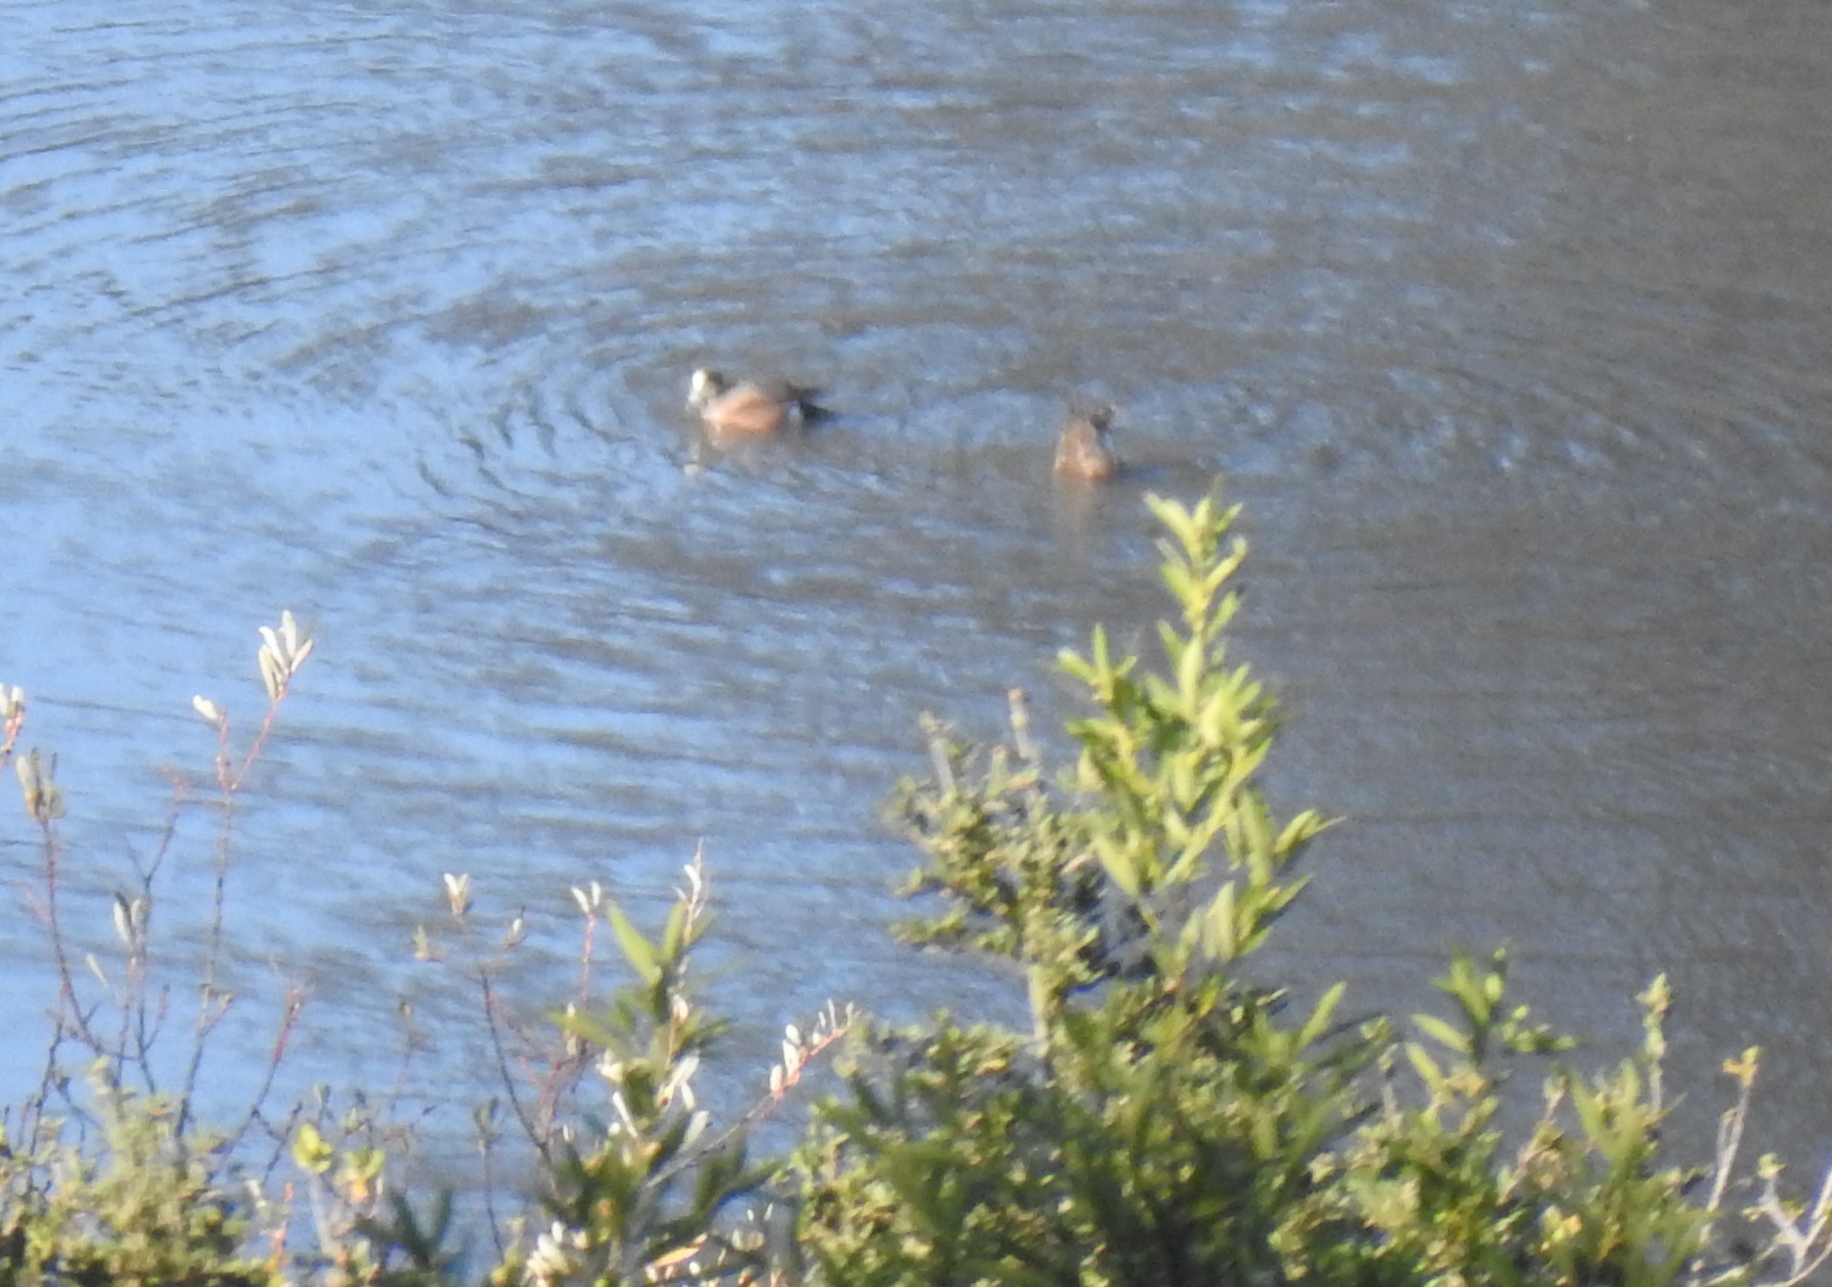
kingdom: Animalia
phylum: Chordata
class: Aves
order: Anseriformes
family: Anatidae
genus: Mareca
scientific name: Mareca americana
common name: American wigeon
